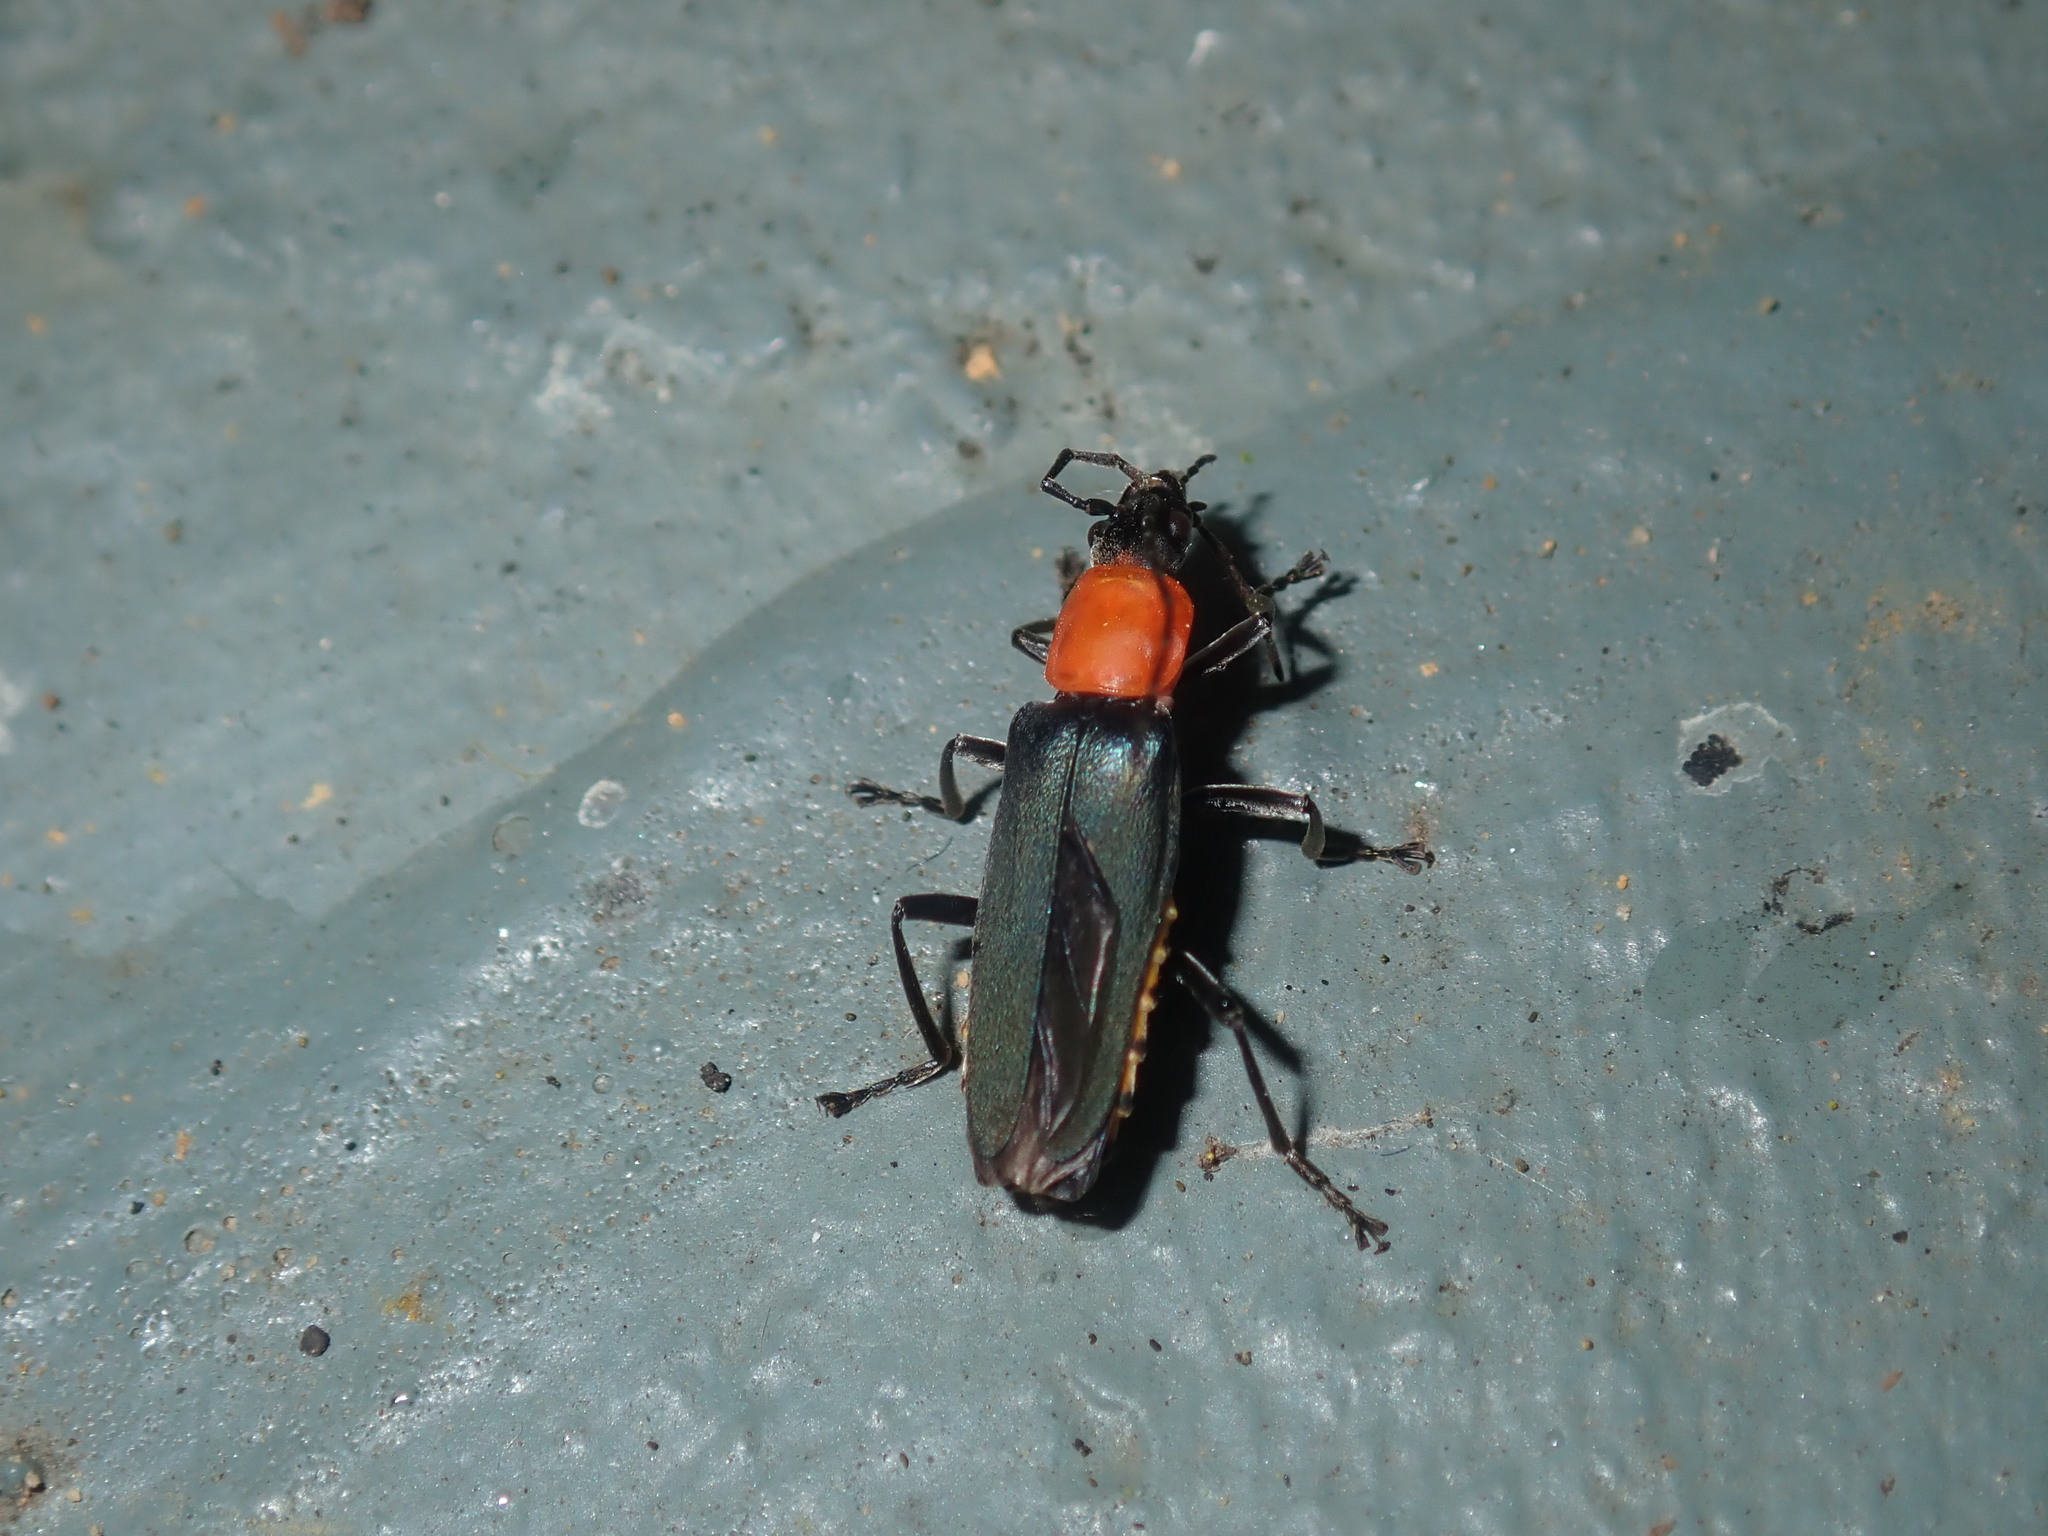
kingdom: Animalia
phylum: Arthropoda
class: Insecta
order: Coleoptera
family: Cantharidae
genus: Chauliognathus
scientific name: Chauliognathus
